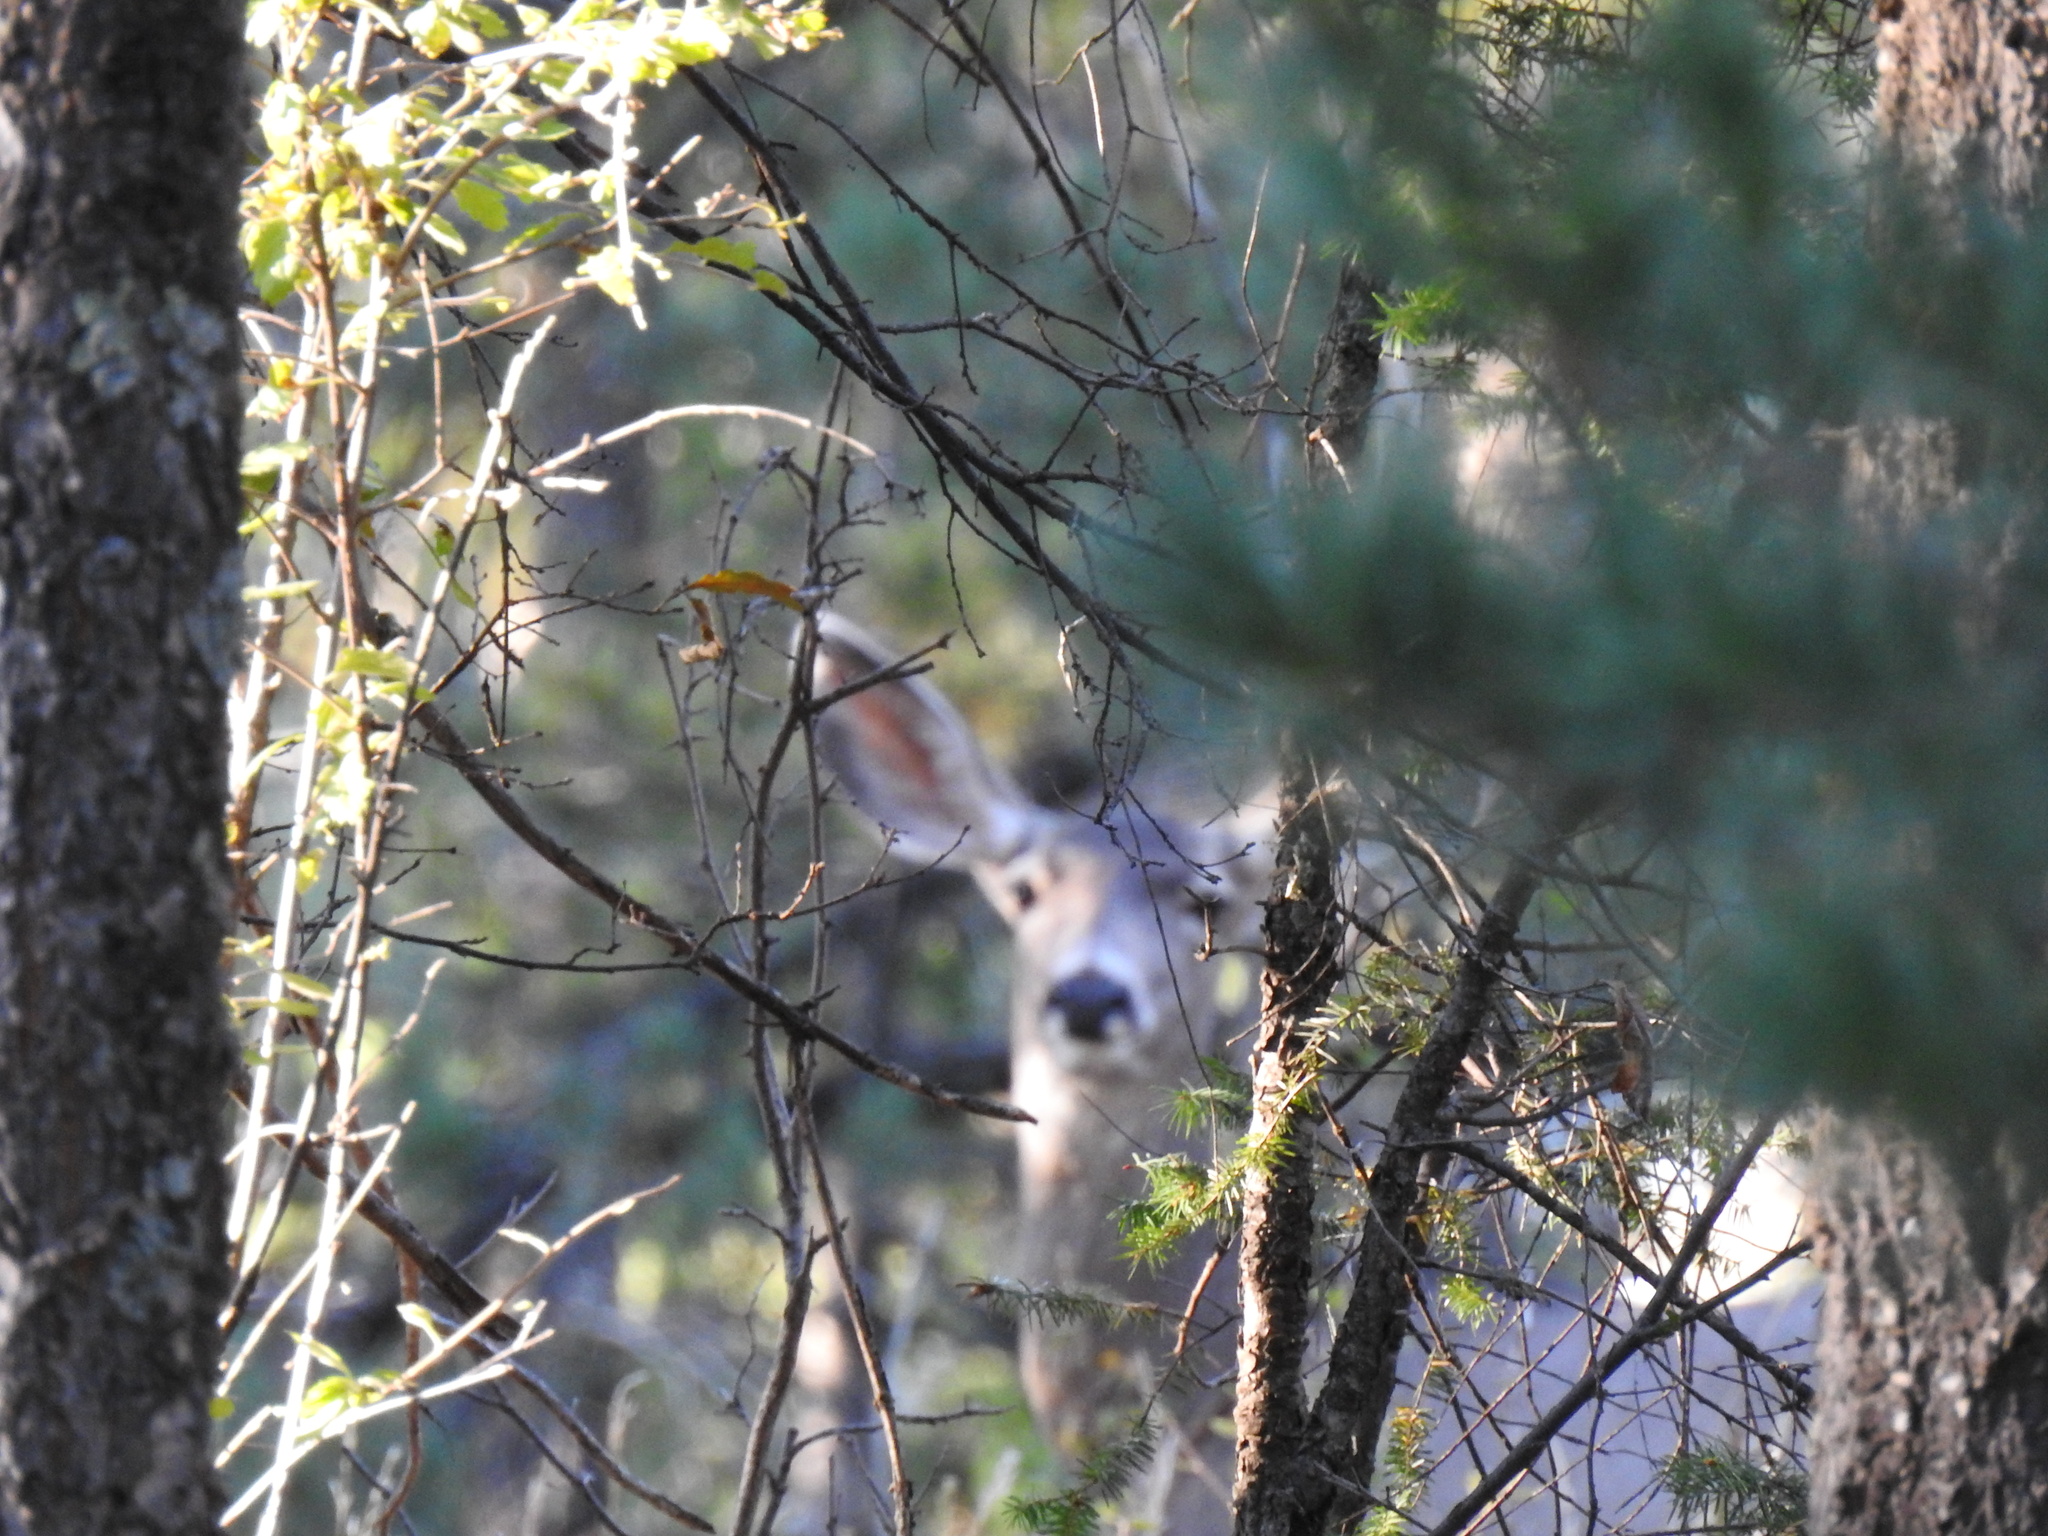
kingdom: Animalia
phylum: Chordata
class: Mammalia
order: Artiodactyla
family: Cervidae
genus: Odocoileus
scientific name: Odocoileus hemionus
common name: Mule deer
